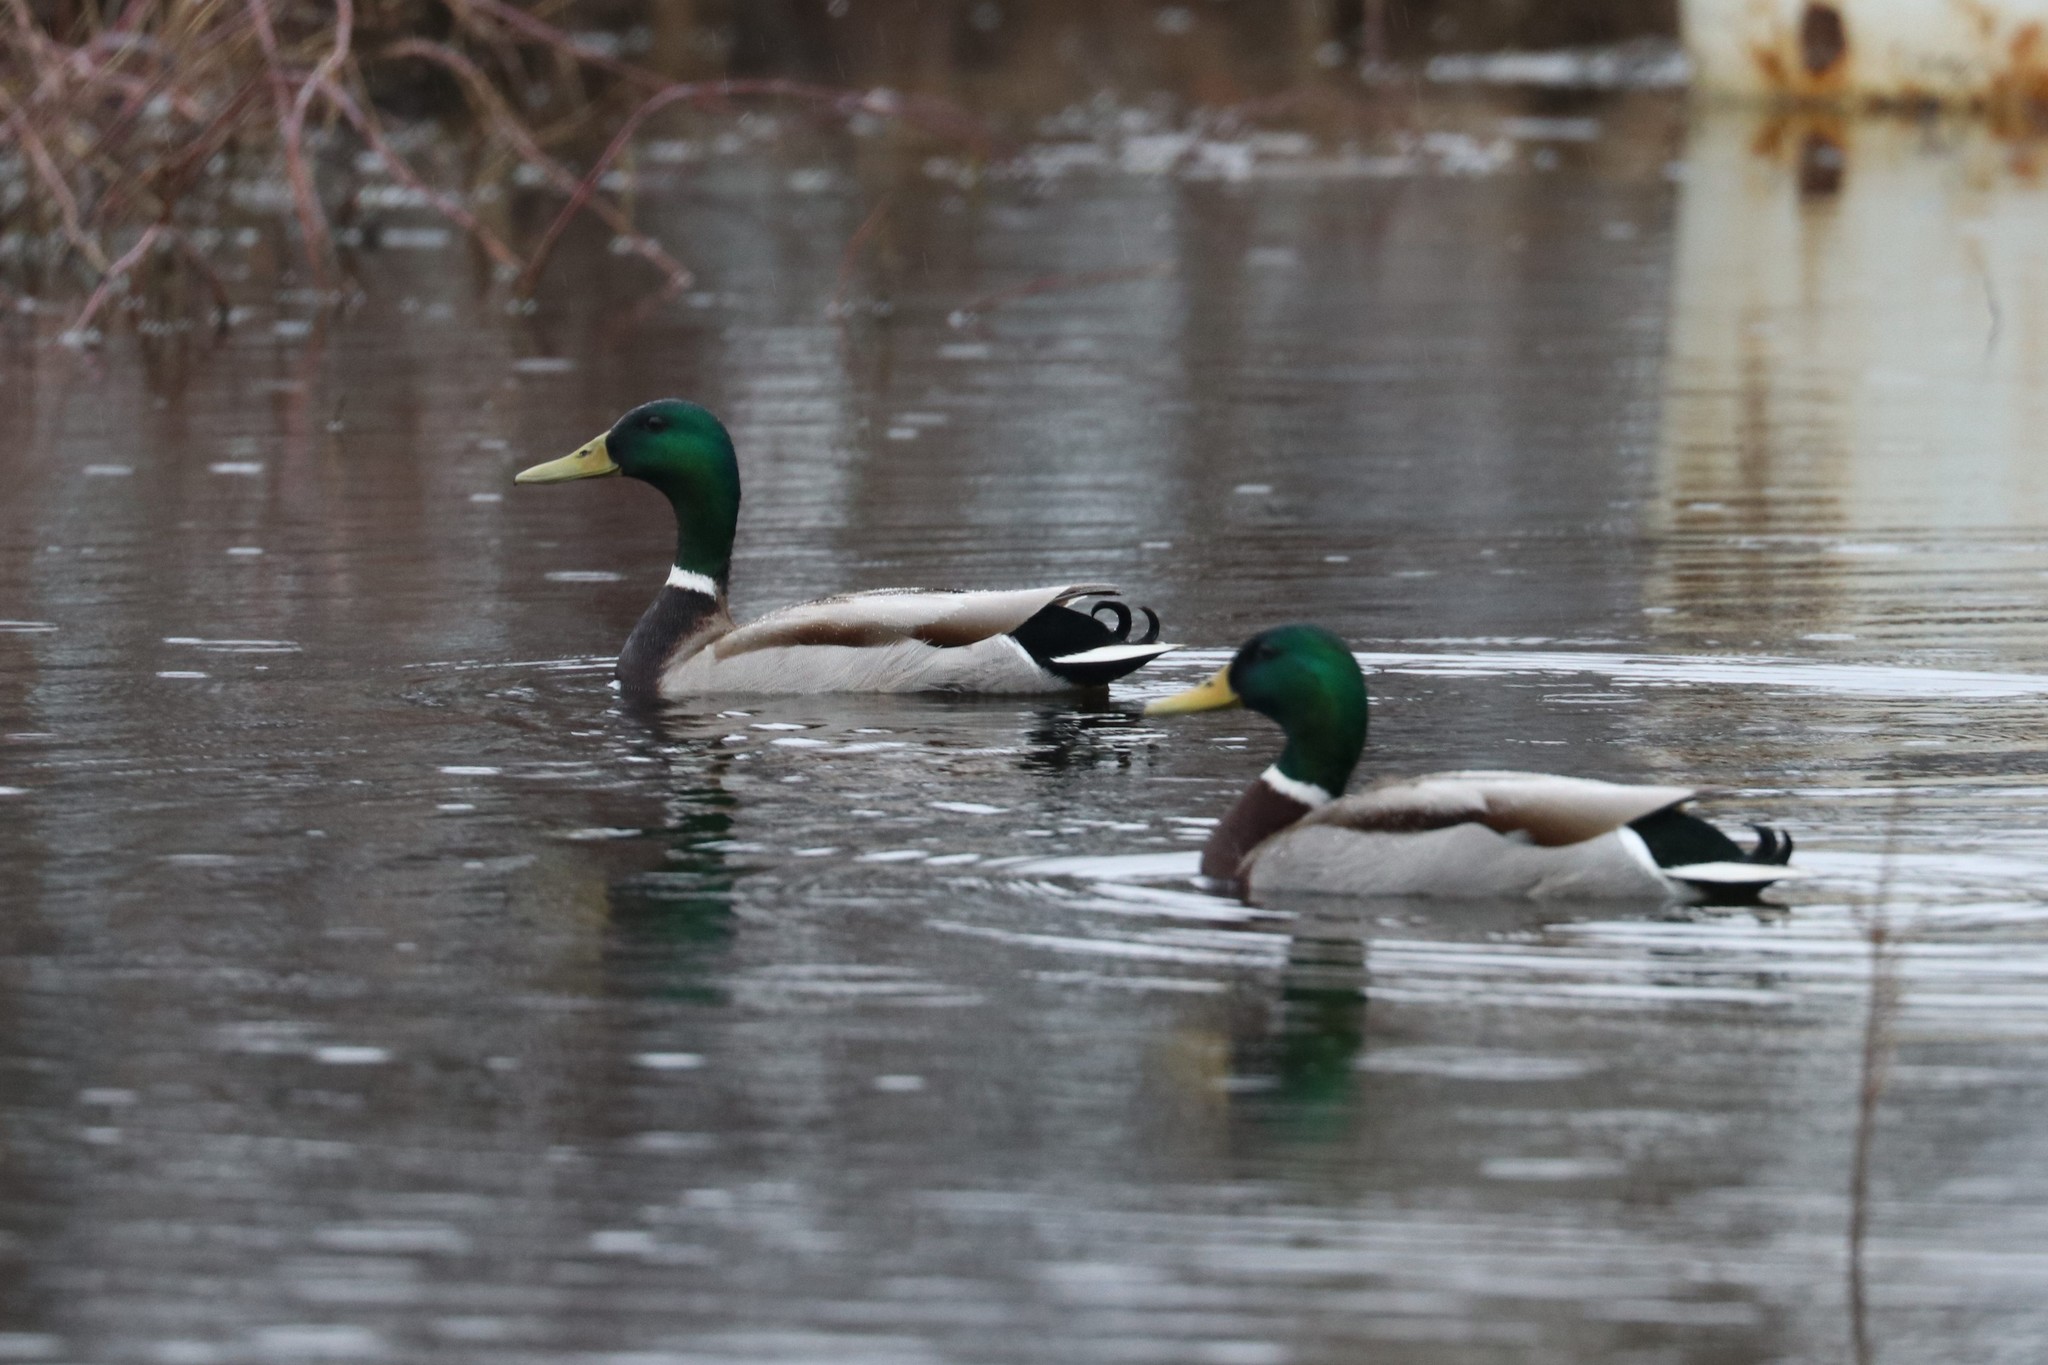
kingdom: Animalia
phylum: Chordata
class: Aves
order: Anseriformes
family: Anatidae
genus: Anas
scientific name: Anas platyrhynchos
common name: Mallard
